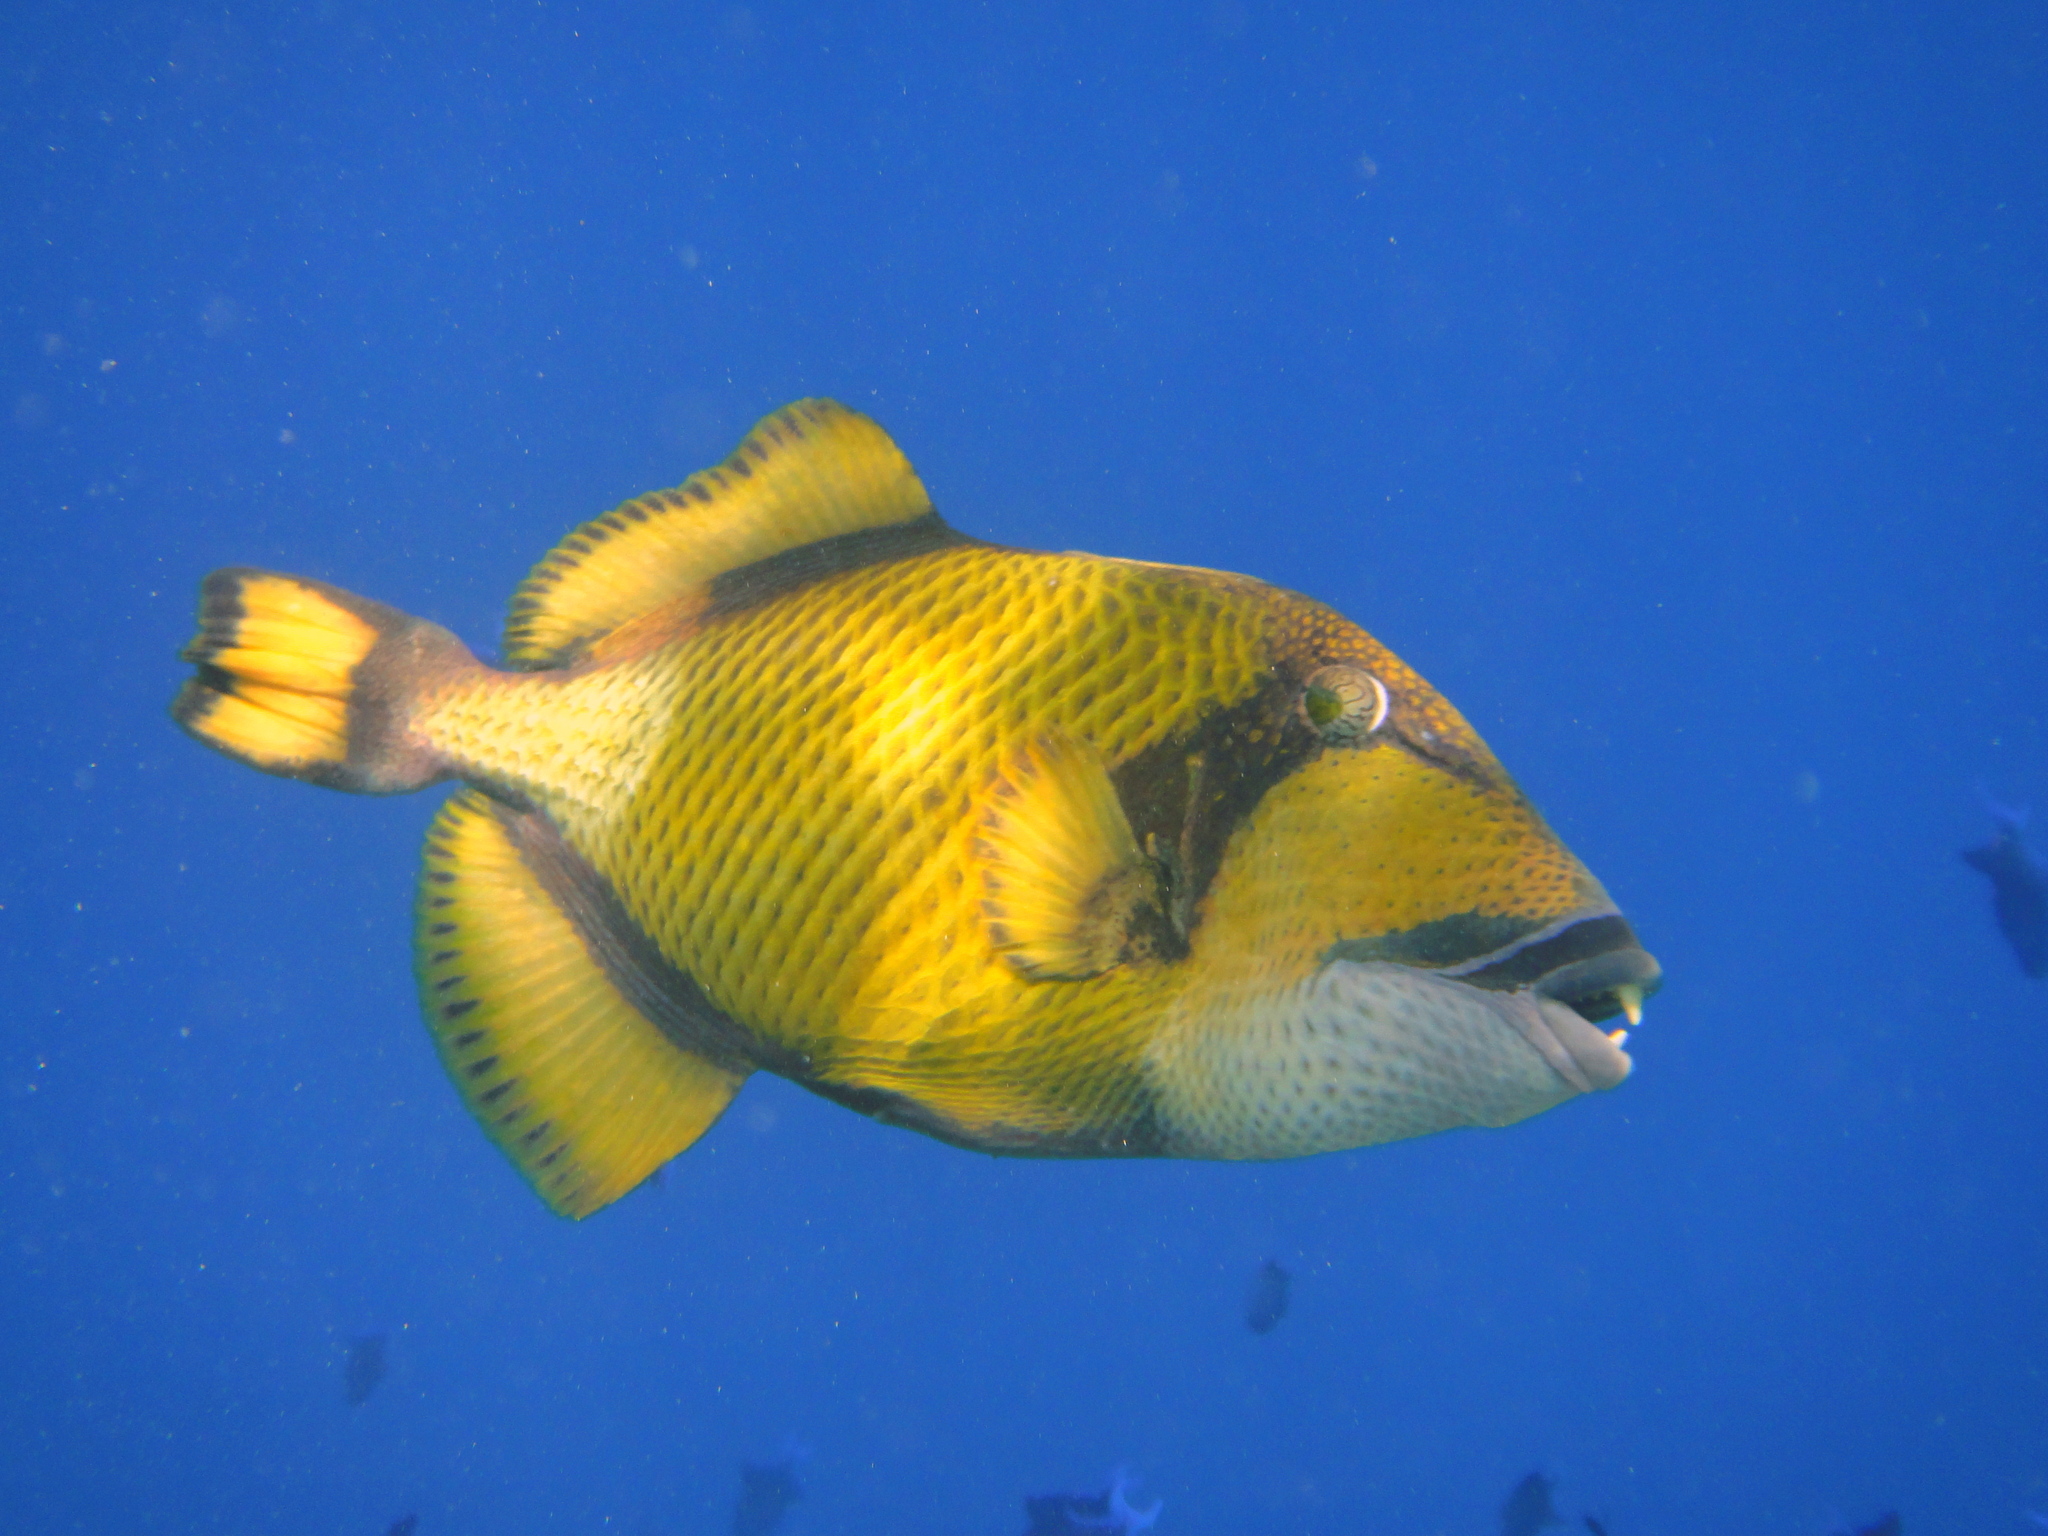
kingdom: Animalia
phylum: Chordata
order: Tetraodontiformes
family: Balistidae
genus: Balistoides
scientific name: Balistoides viridescens
